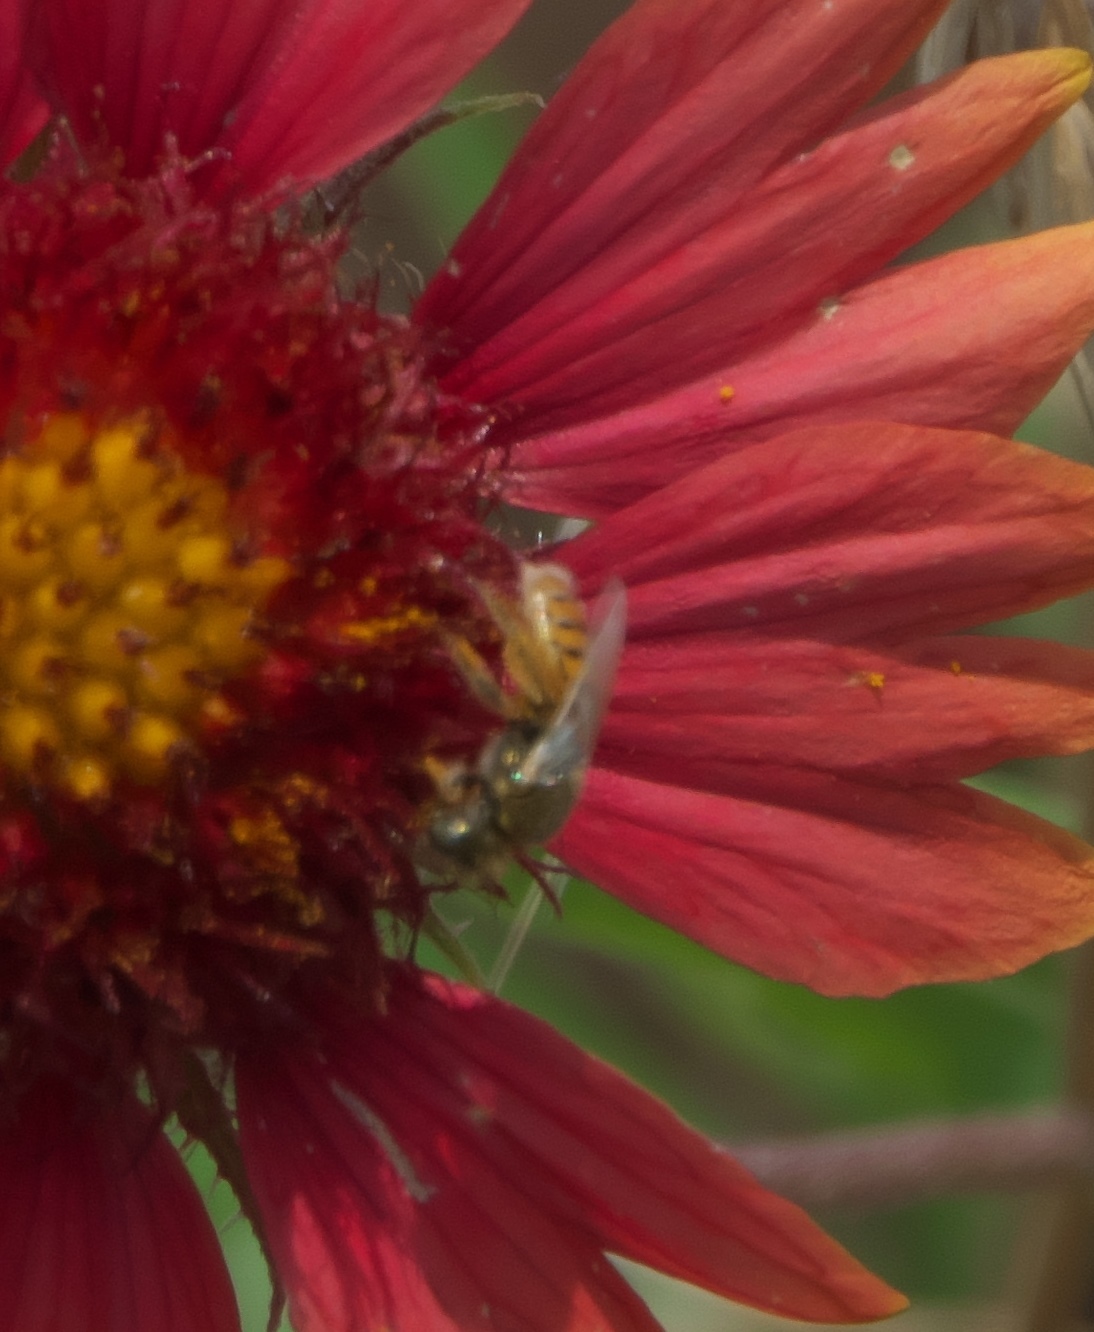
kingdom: Animalia
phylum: Arthropoda
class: Insecta
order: Hymenoptera
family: Andrenidae
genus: Perdita
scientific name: Perdita coreopsidis
